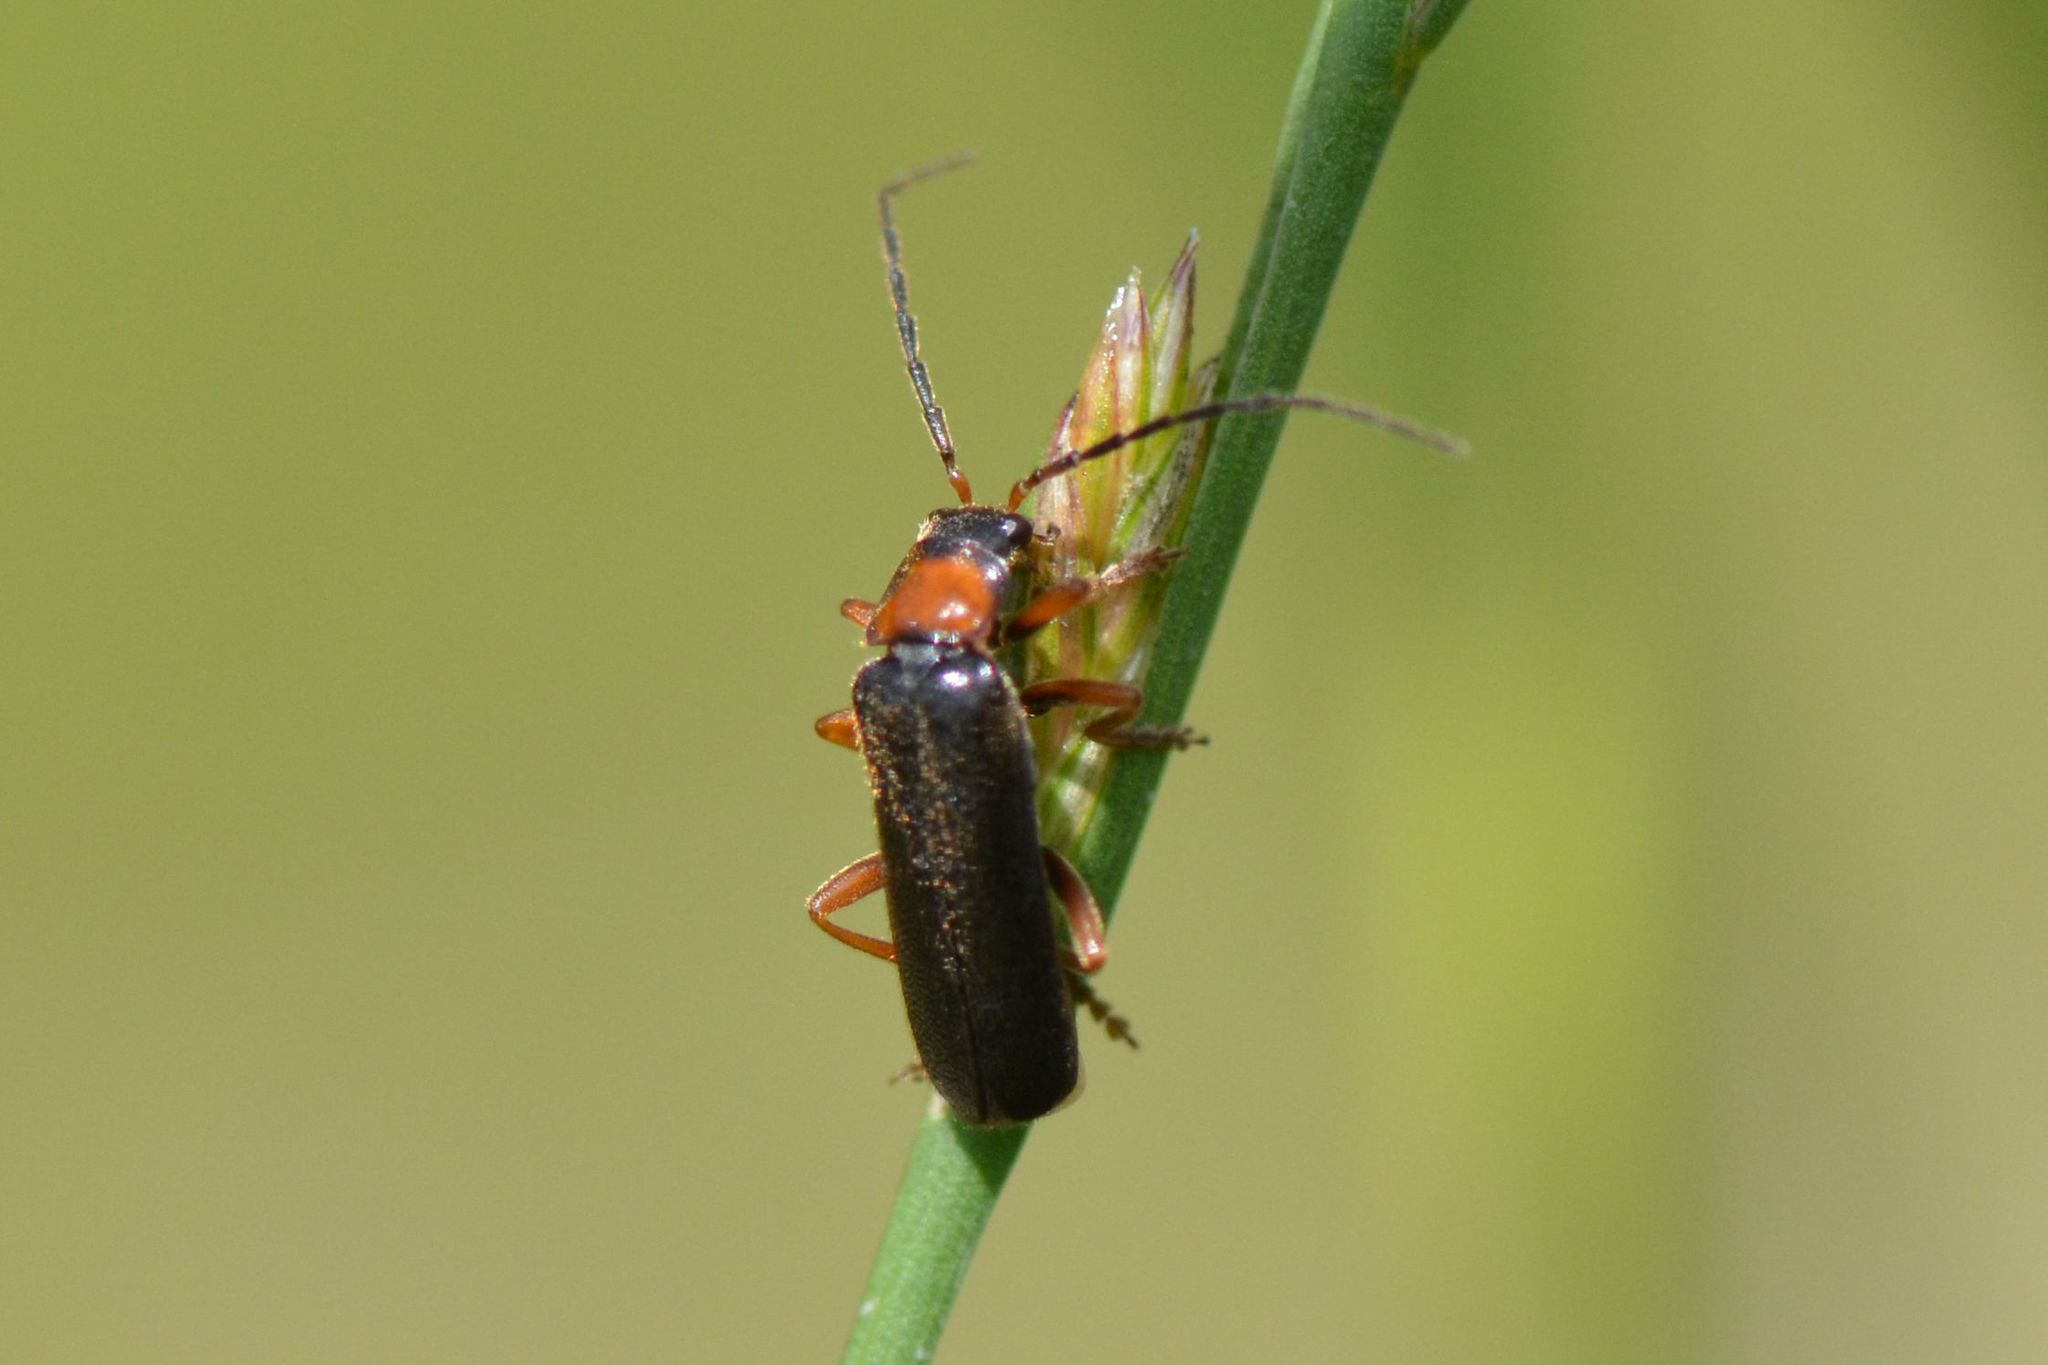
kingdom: Animalia
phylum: Arthropoda
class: Insecta
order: Coleoptera
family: Cantharidae
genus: Cantharis
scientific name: Cantharis flavilabris
